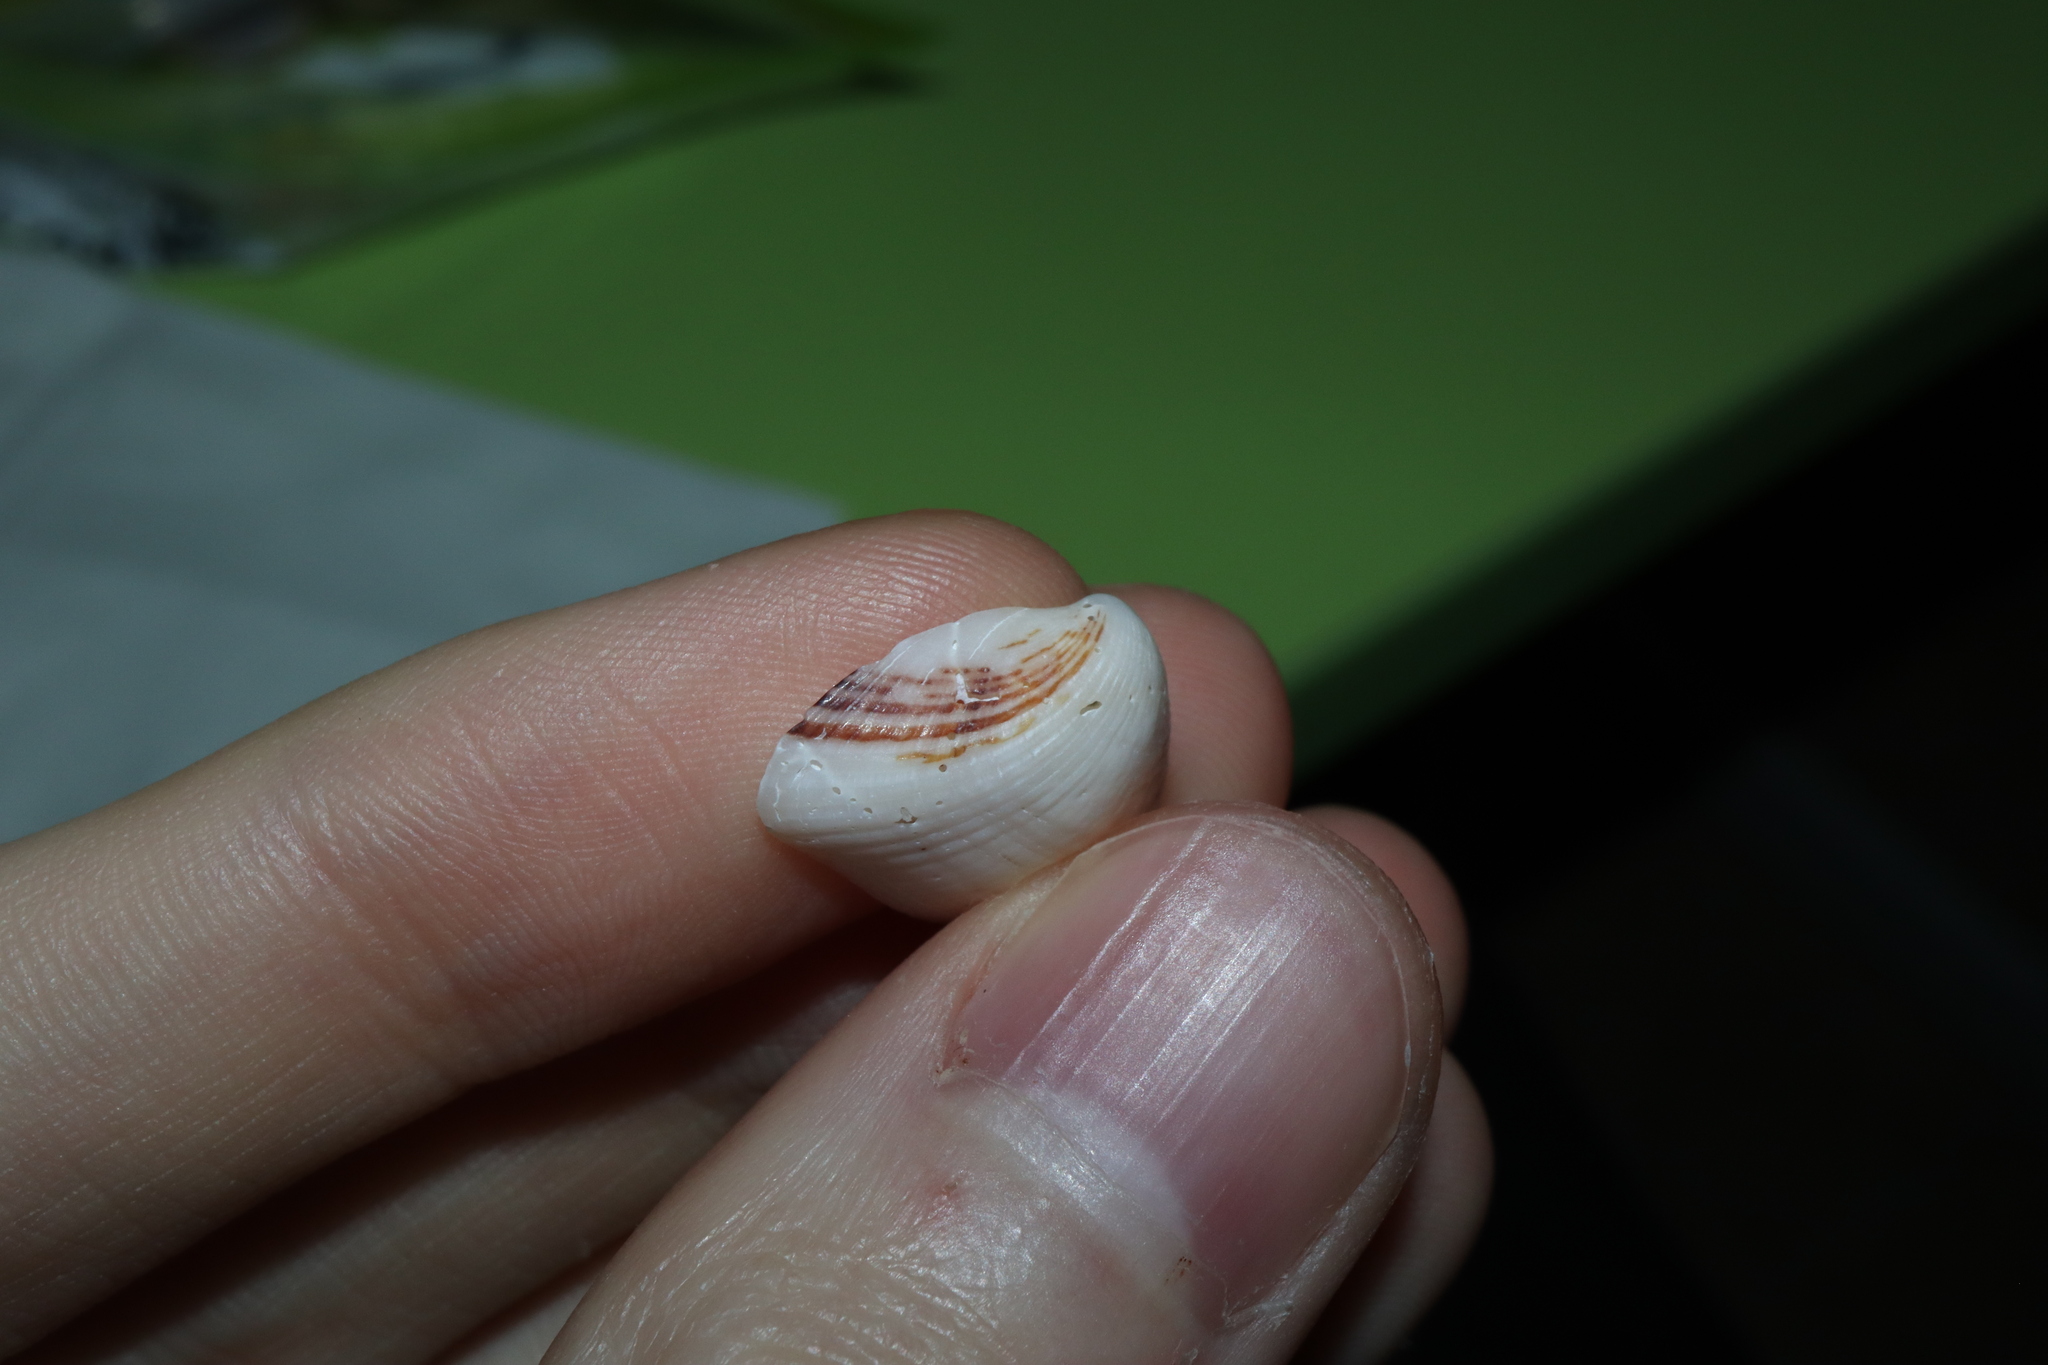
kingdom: Animalia
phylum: Mollusca
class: Bivalvia
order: Venerida
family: Hemidonacidae
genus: Hemidonax
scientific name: Hemidonax pictus
